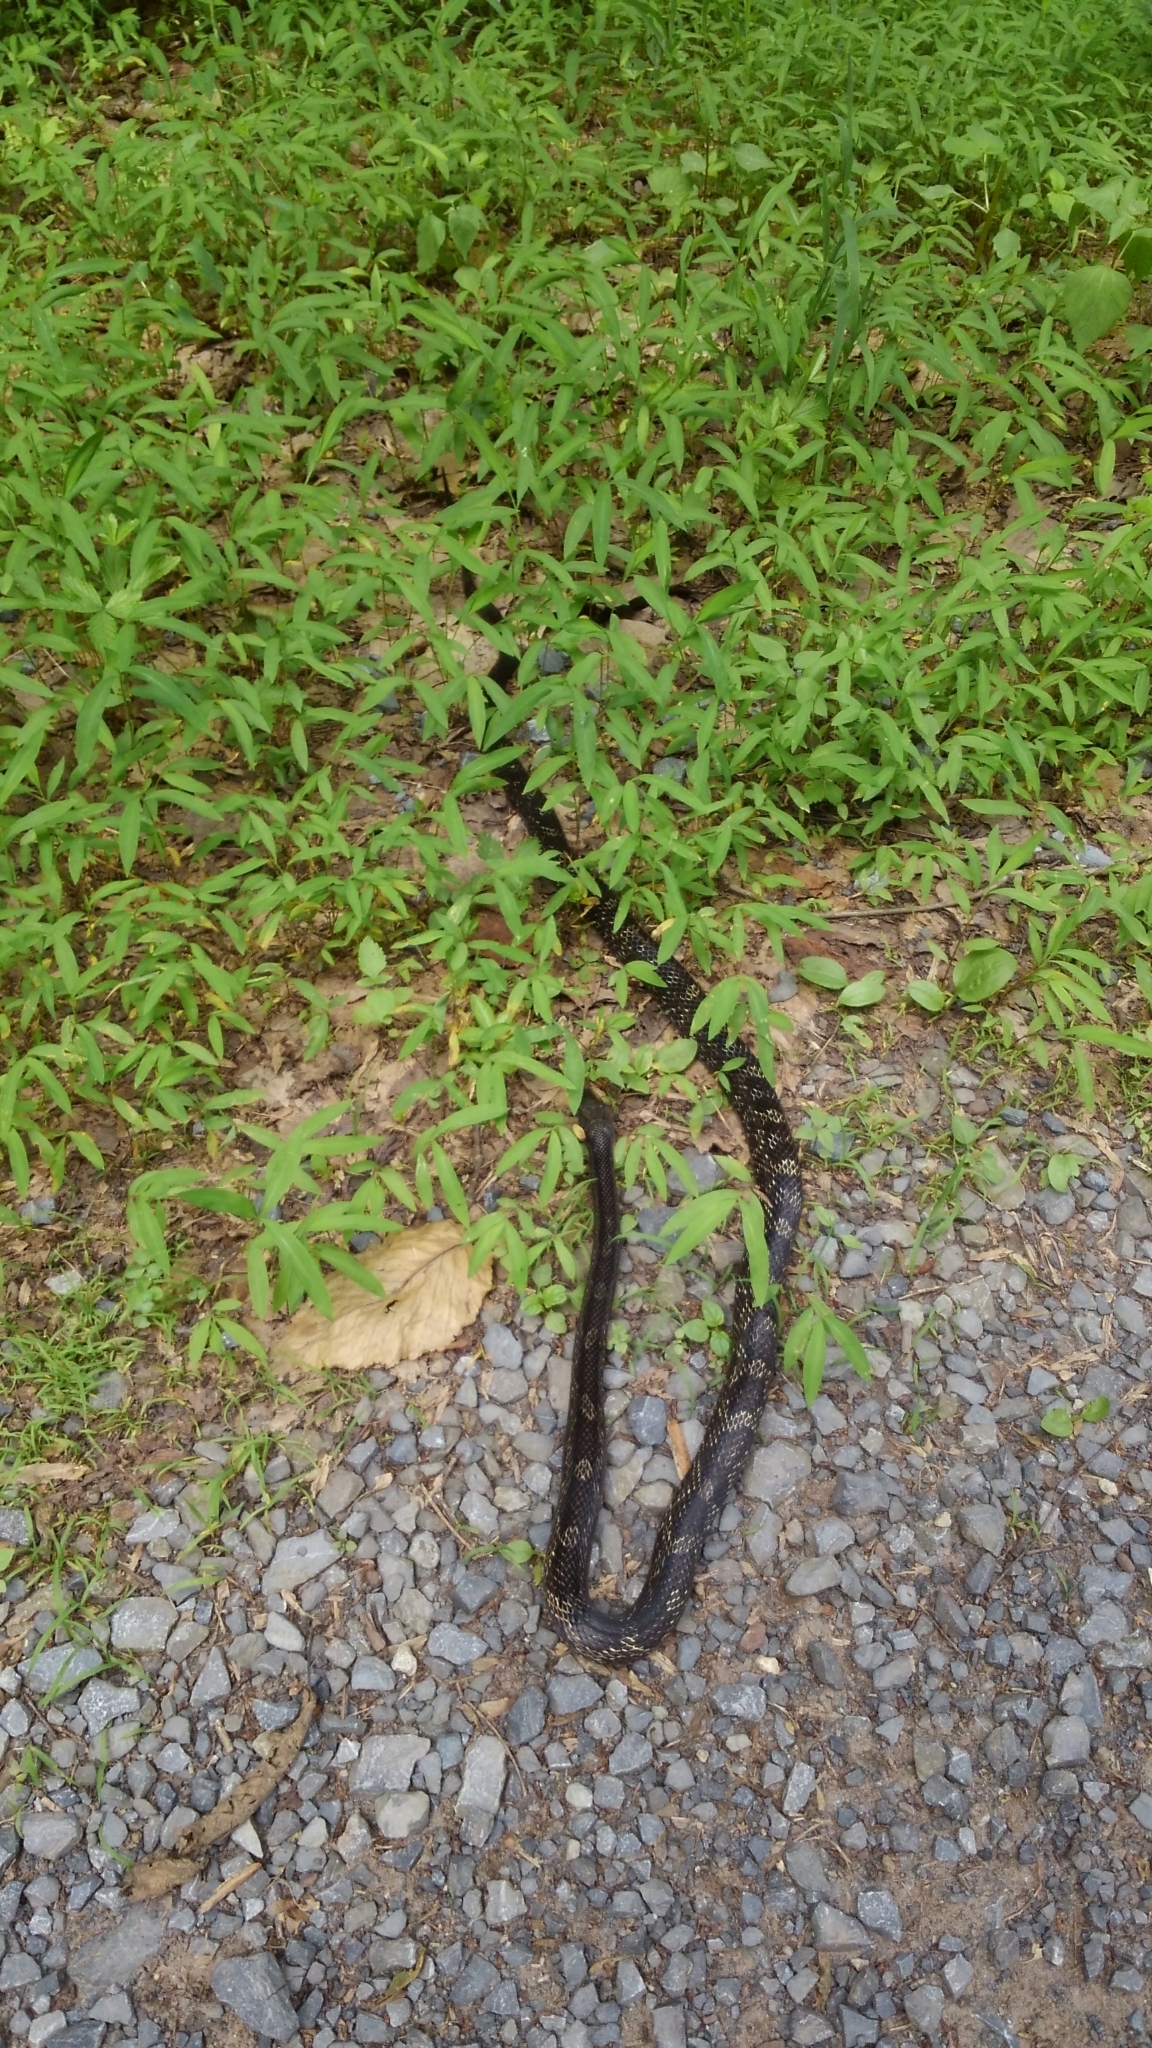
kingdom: Animalia
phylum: Chordata
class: Squamata
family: Colubridae
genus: Pantherophis
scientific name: Pantherophis alleghaniensis
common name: Eastern rat snake
